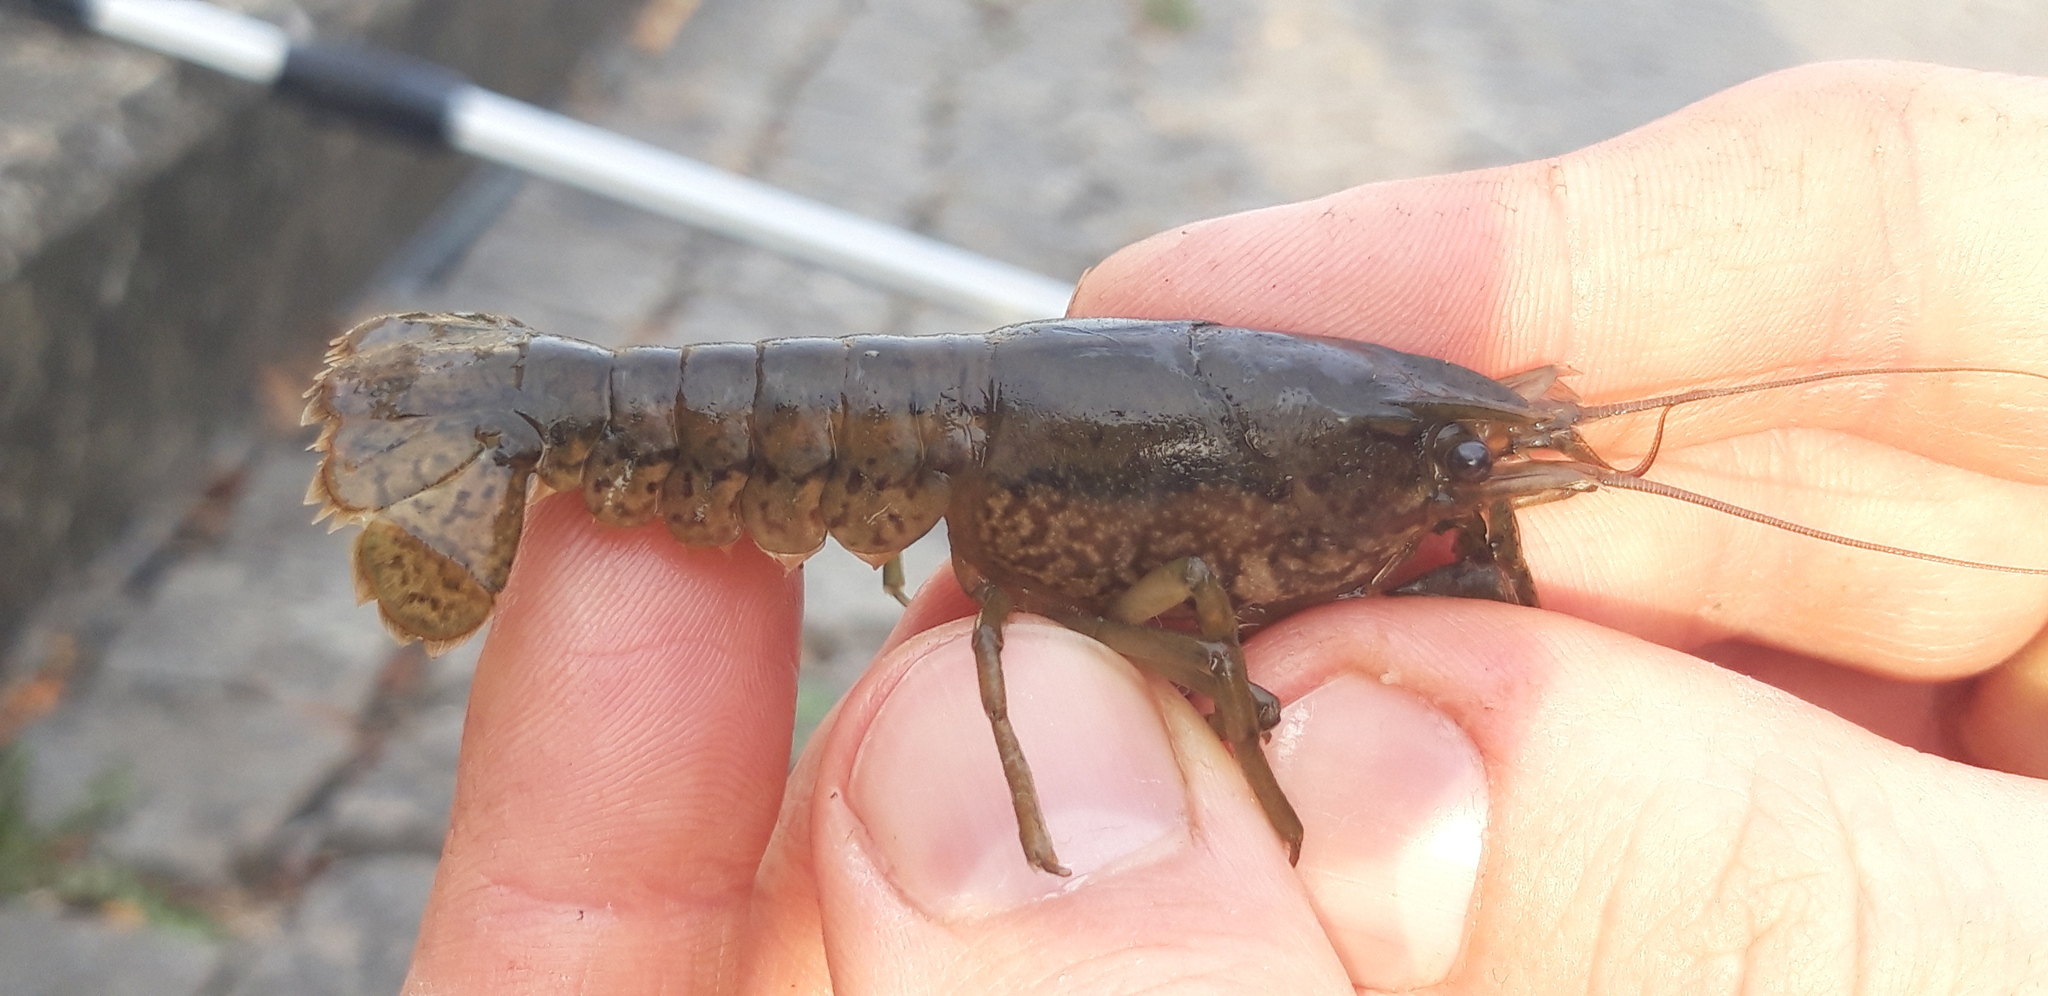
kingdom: Animalia
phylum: Arthropoda
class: Malacostraca
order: Decapoda
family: Cambaridae
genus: Procambarus
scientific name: Procambarus virginalis
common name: Marbled crayfish
